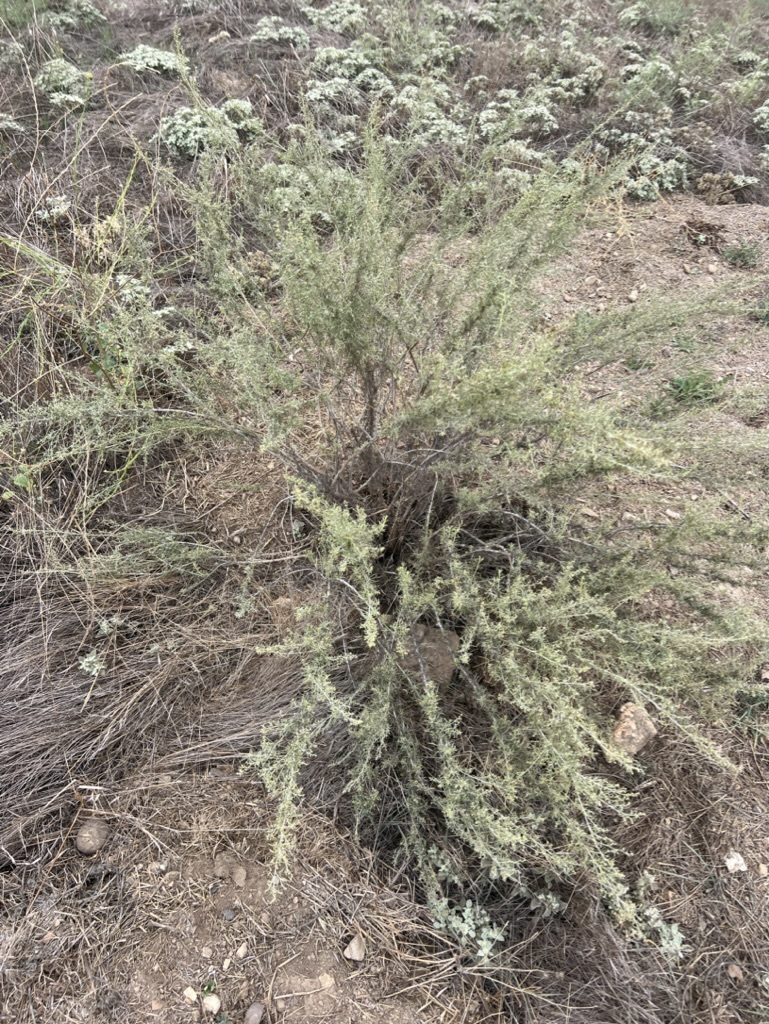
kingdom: Plantae
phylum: Tracheophyta
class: Magnoliopsida
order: Asterales
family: Asteraceae
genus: Artemisia
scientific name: Artemisia californica
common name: California sagebrush
